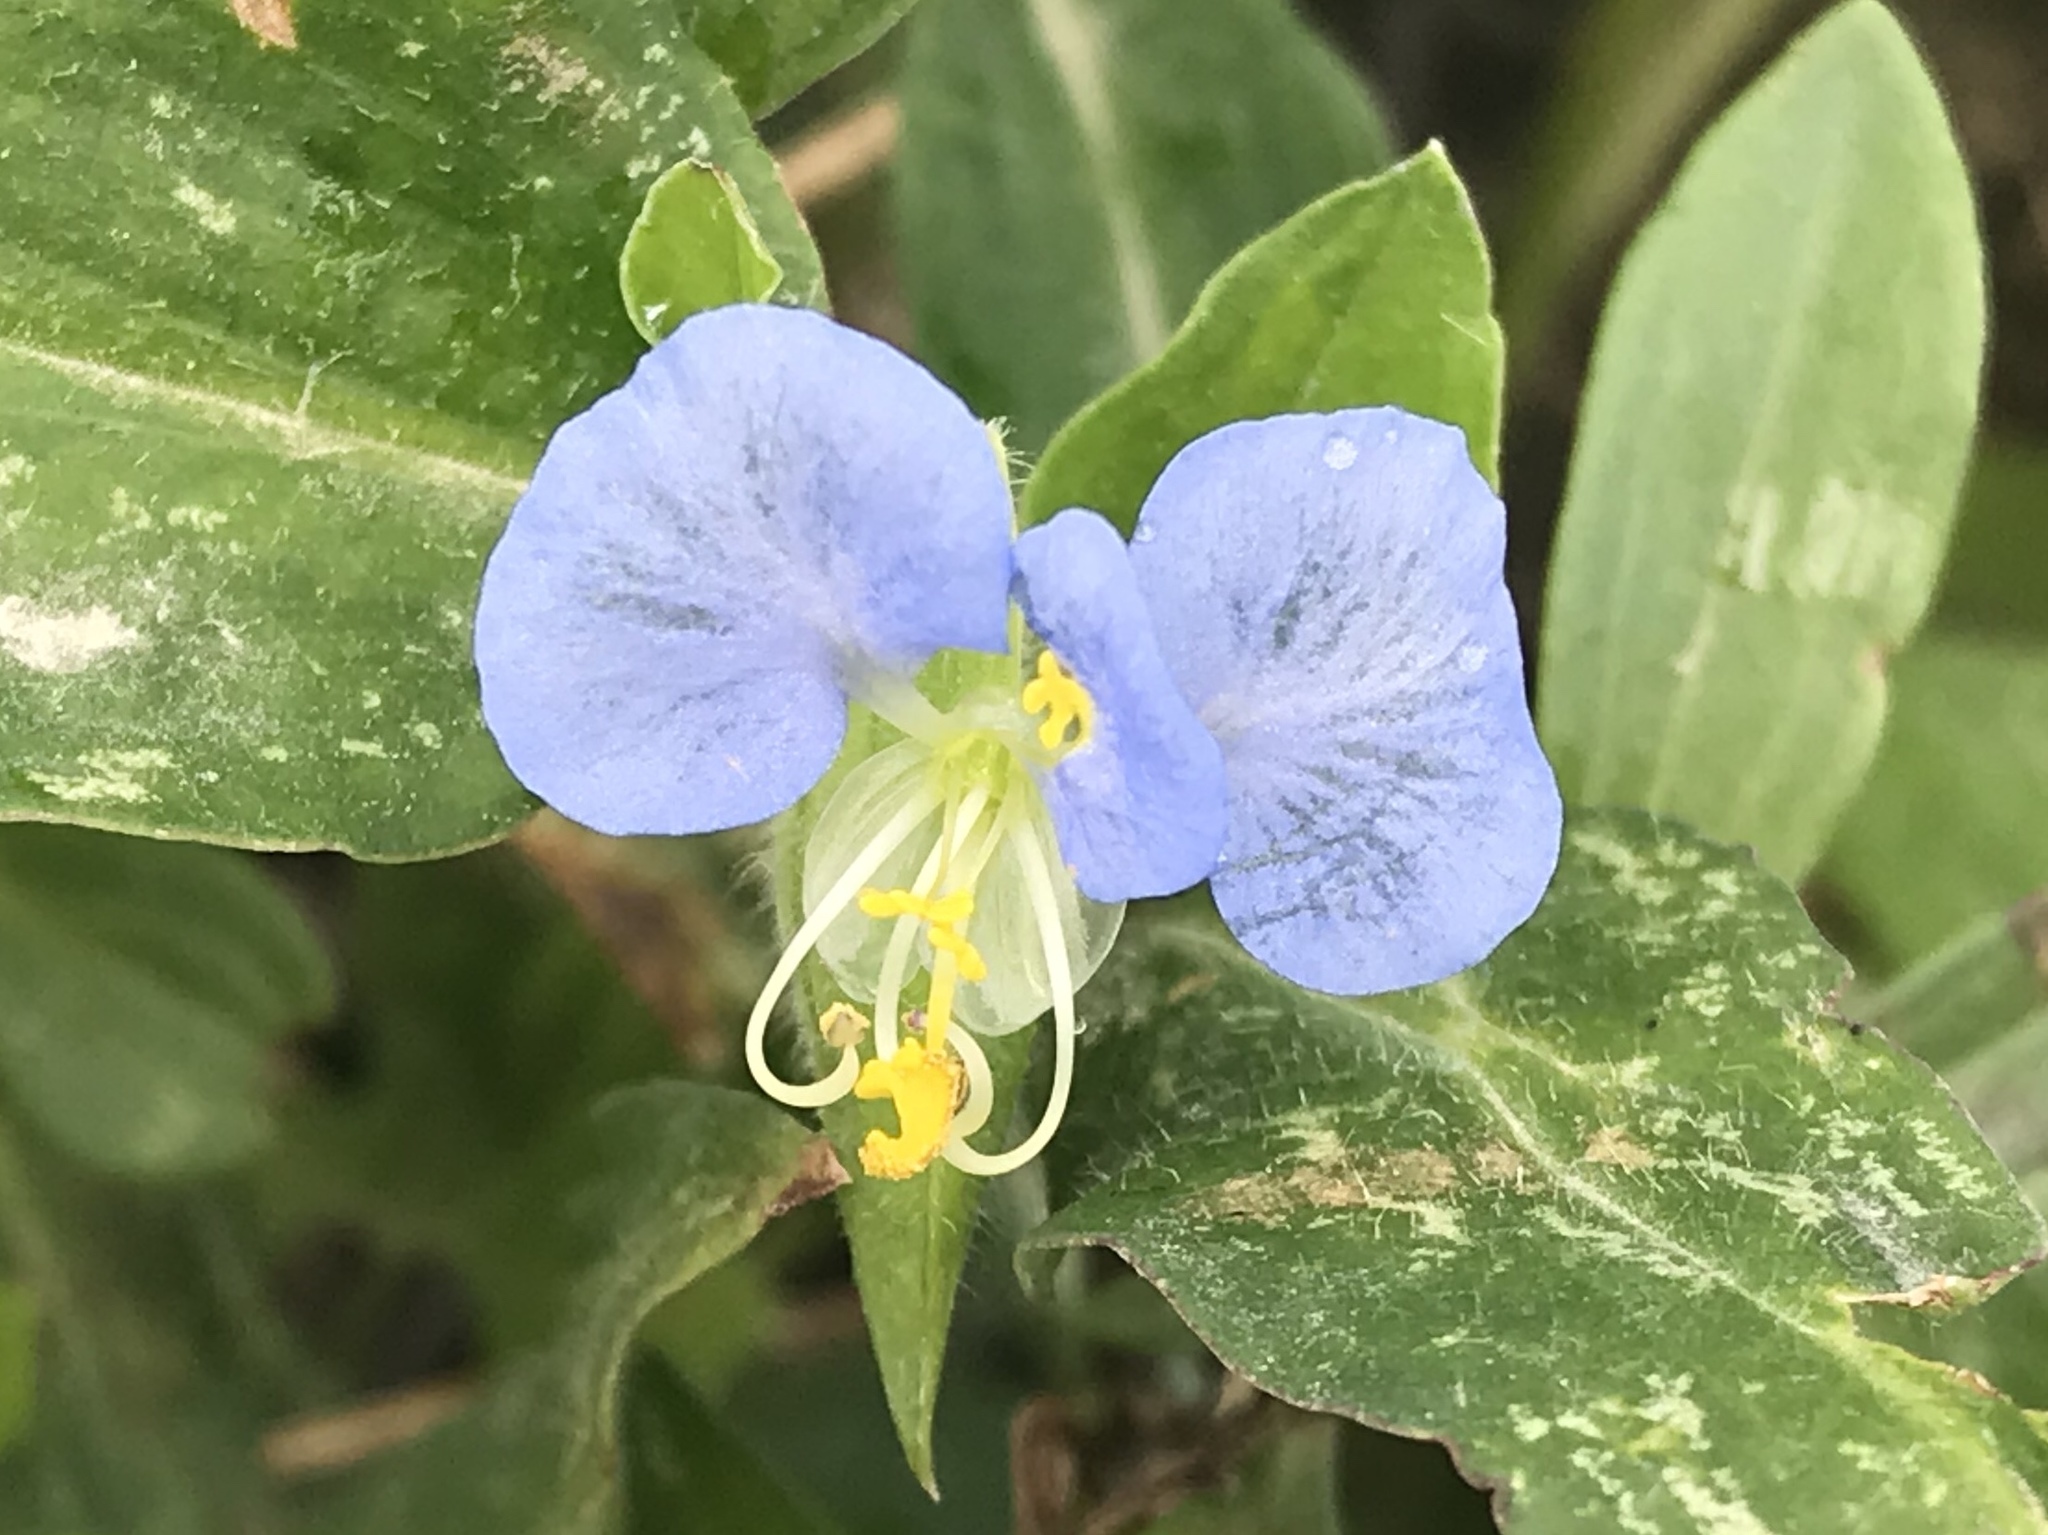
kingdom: Plantae
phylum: Tracheophyta
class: Liliopsida
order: Commelinales
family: Commelinaceae
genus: Commelina
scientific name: Commelina erecta
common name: Blousel blommetjie
